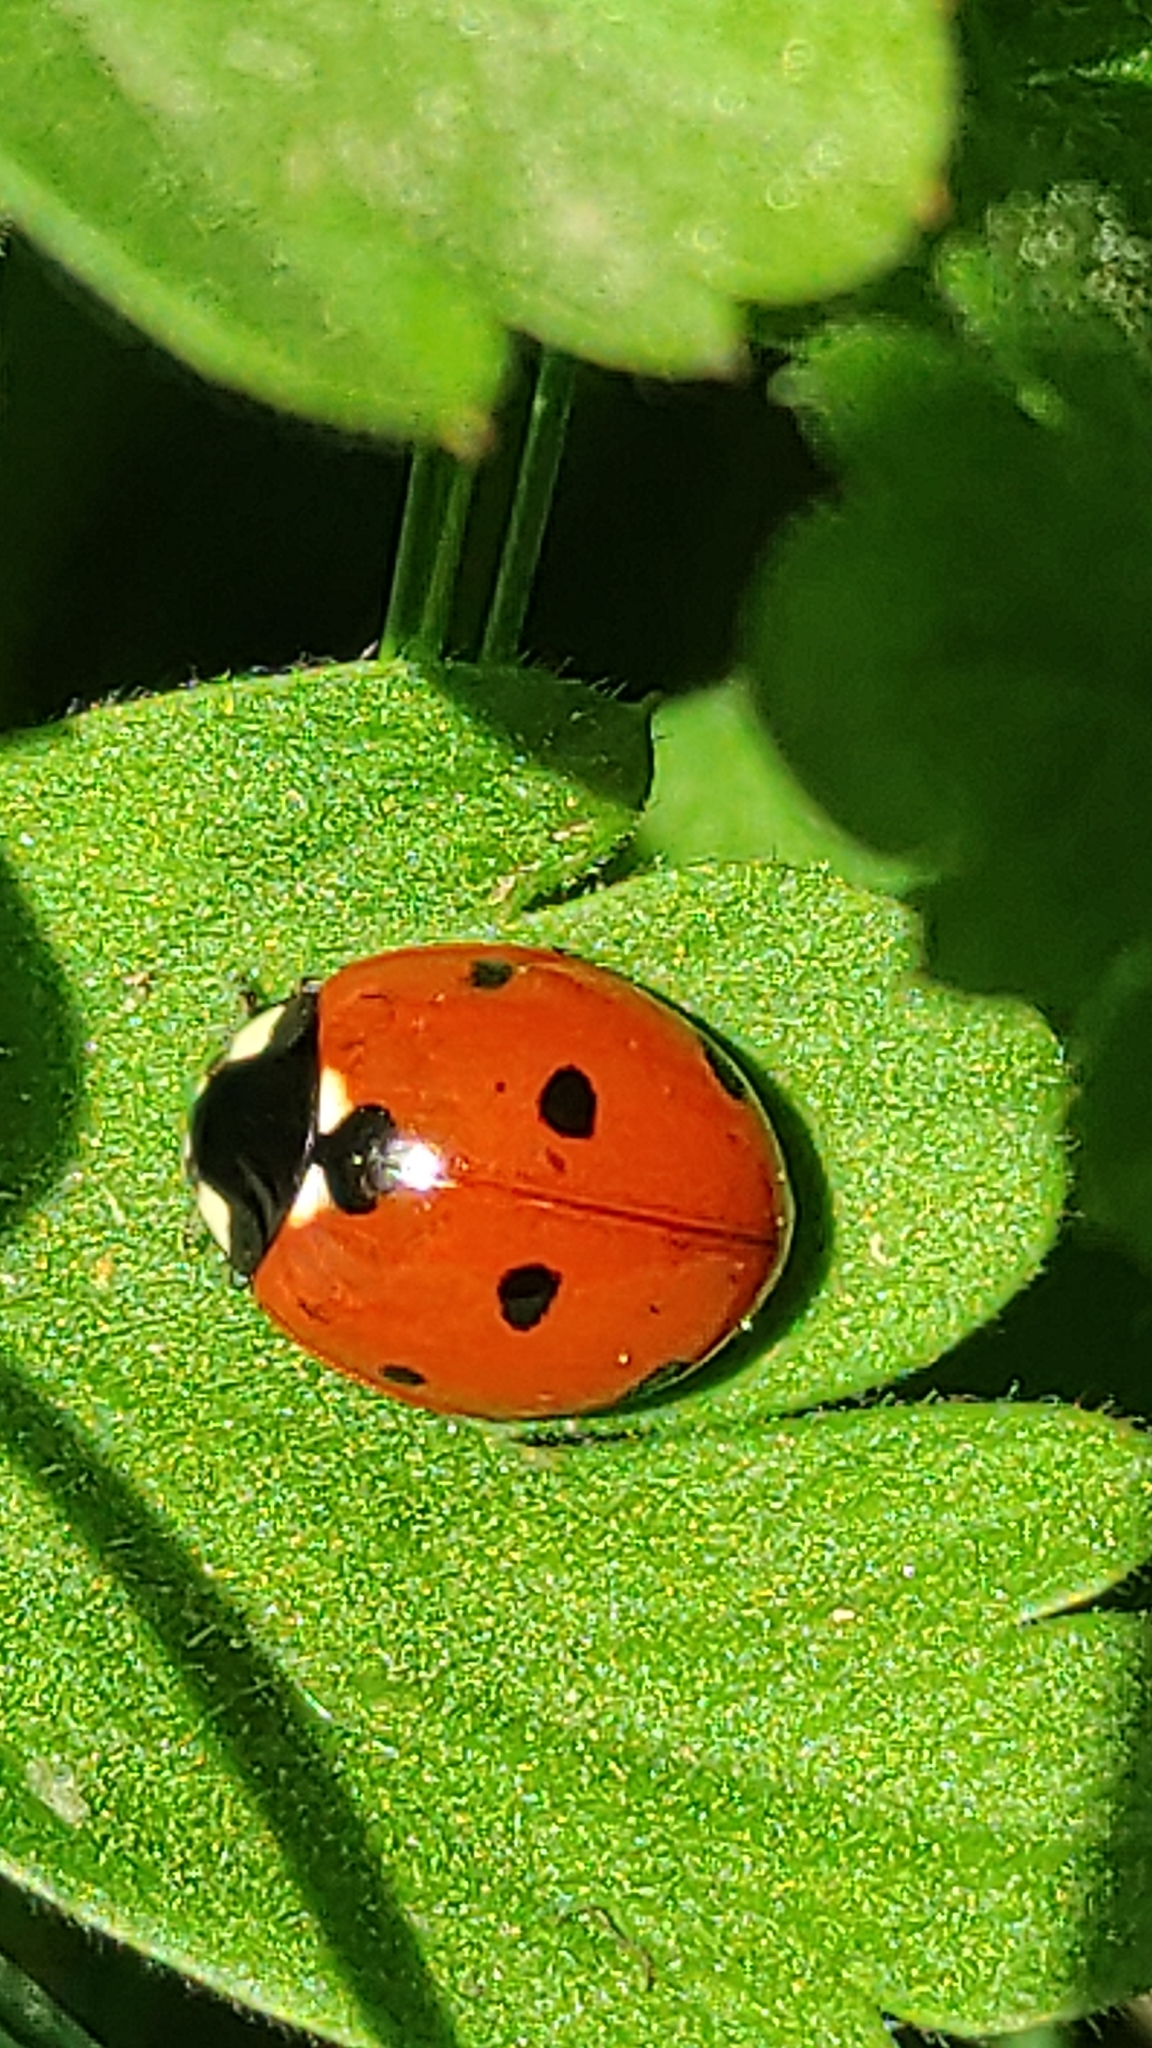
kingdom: Animalia
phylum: Arthropoda
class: Insecta
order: Coleoptera
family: Coccinellidae
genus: Coccinella
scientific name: Coccinella septempunctata
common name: Sevenspotted lady beetle
